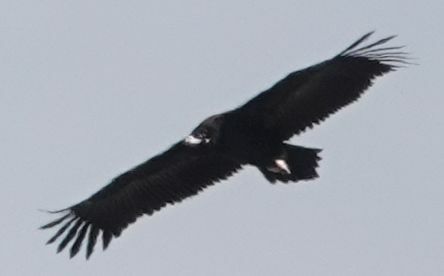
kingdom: Animalia
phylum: Chordata
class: Aves
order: Accipitriformes
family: Accipitridae
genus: Aegypius
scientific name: Aegypius monachus
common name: Cinereous vulture
